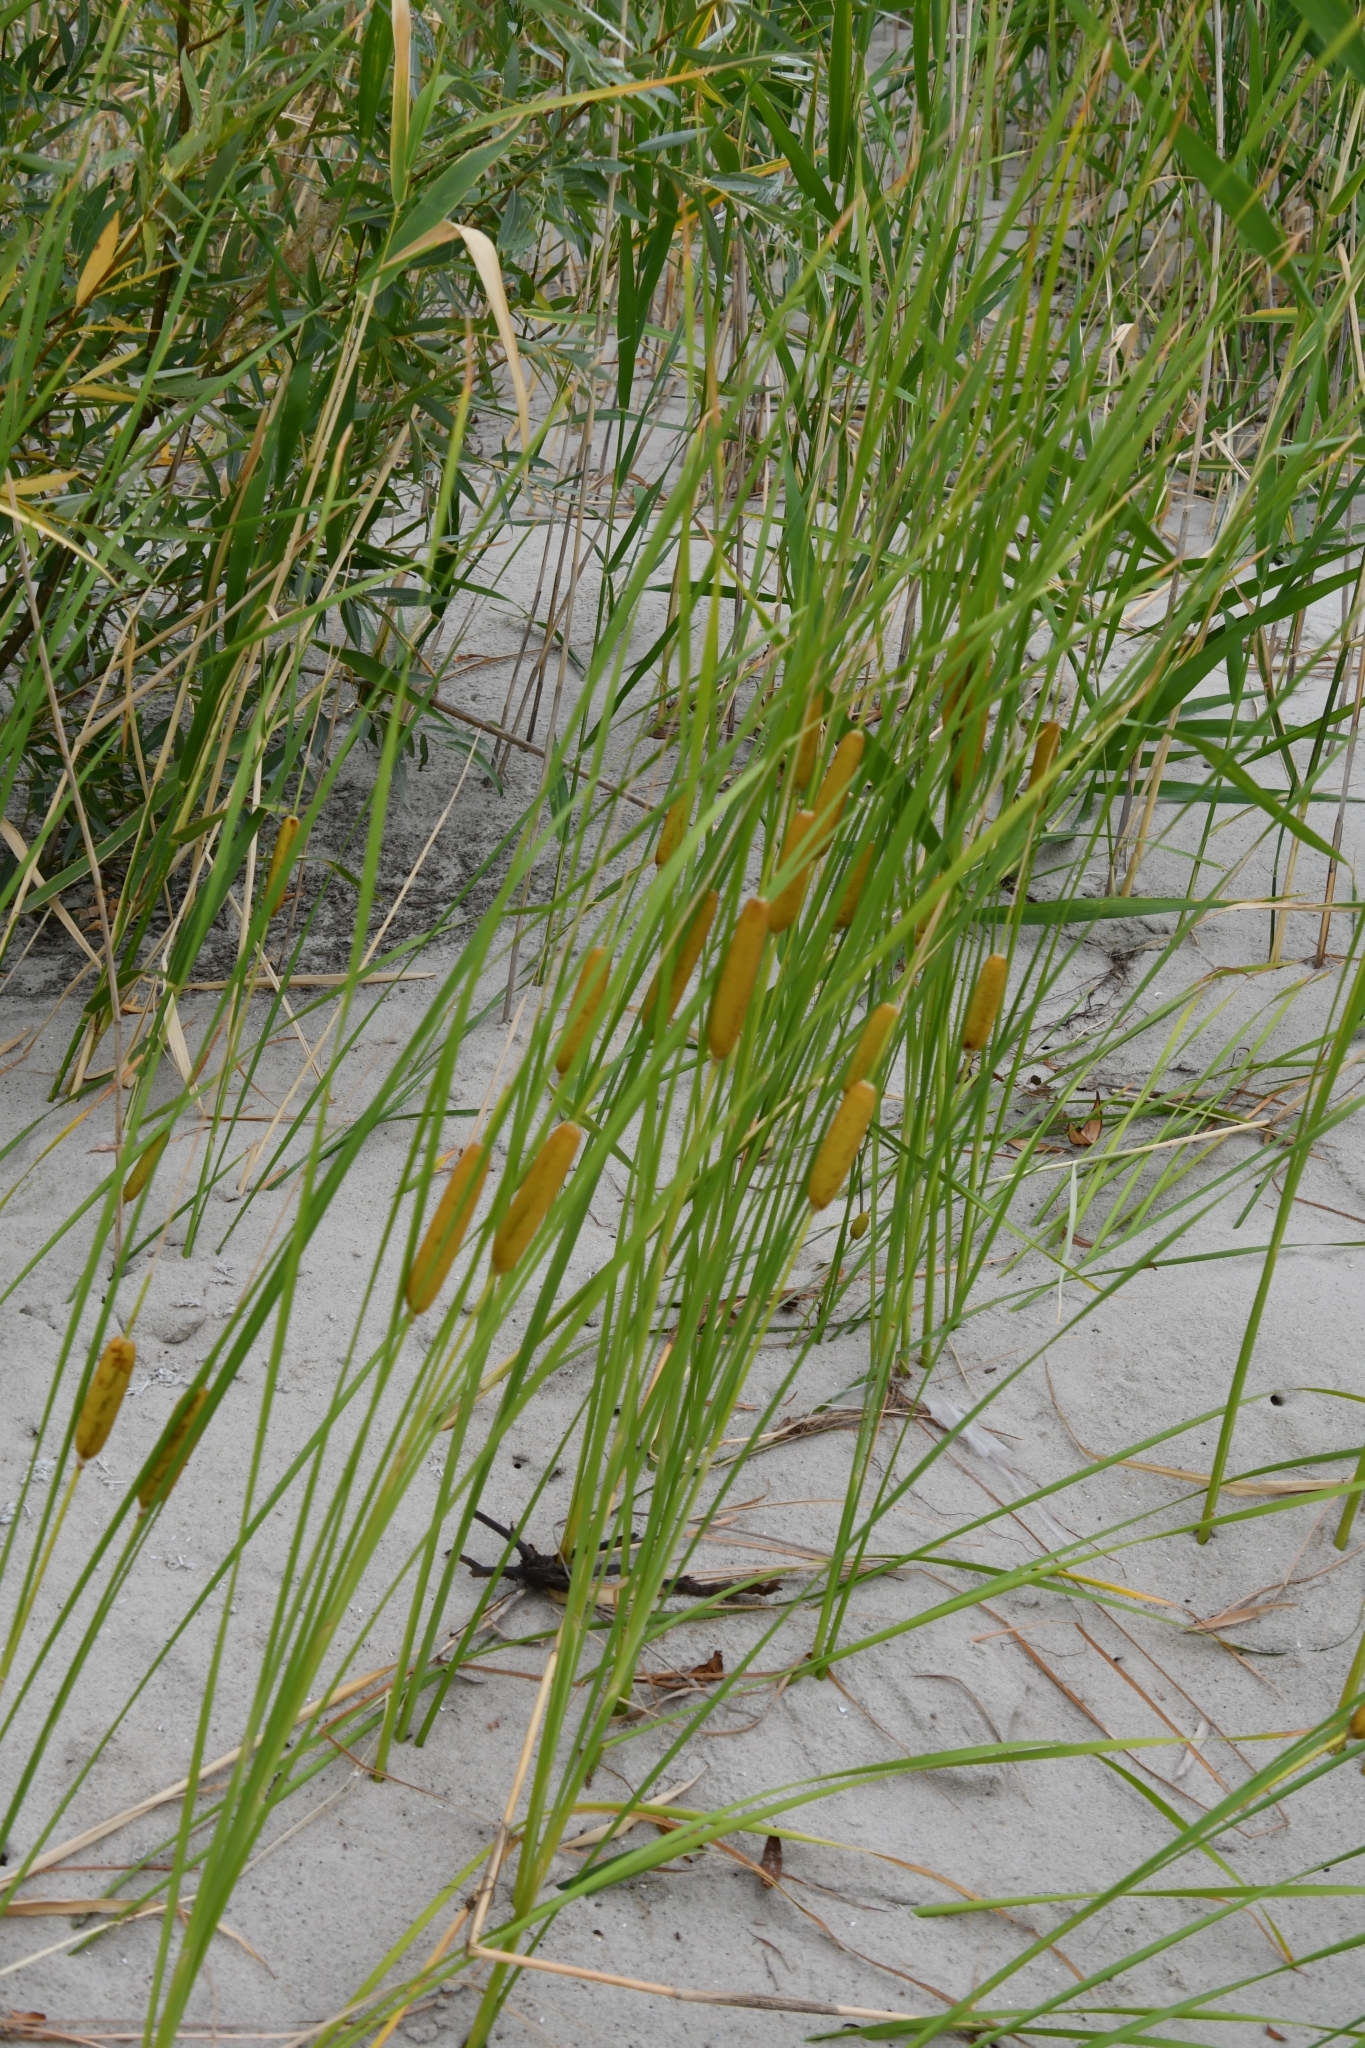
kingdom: Plantae
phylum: Tracheophyta
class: Liliopsida
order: Poales
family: Typhaceae
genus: Typha
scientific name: Typha laxmannii
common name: Laxman’s bulrush
